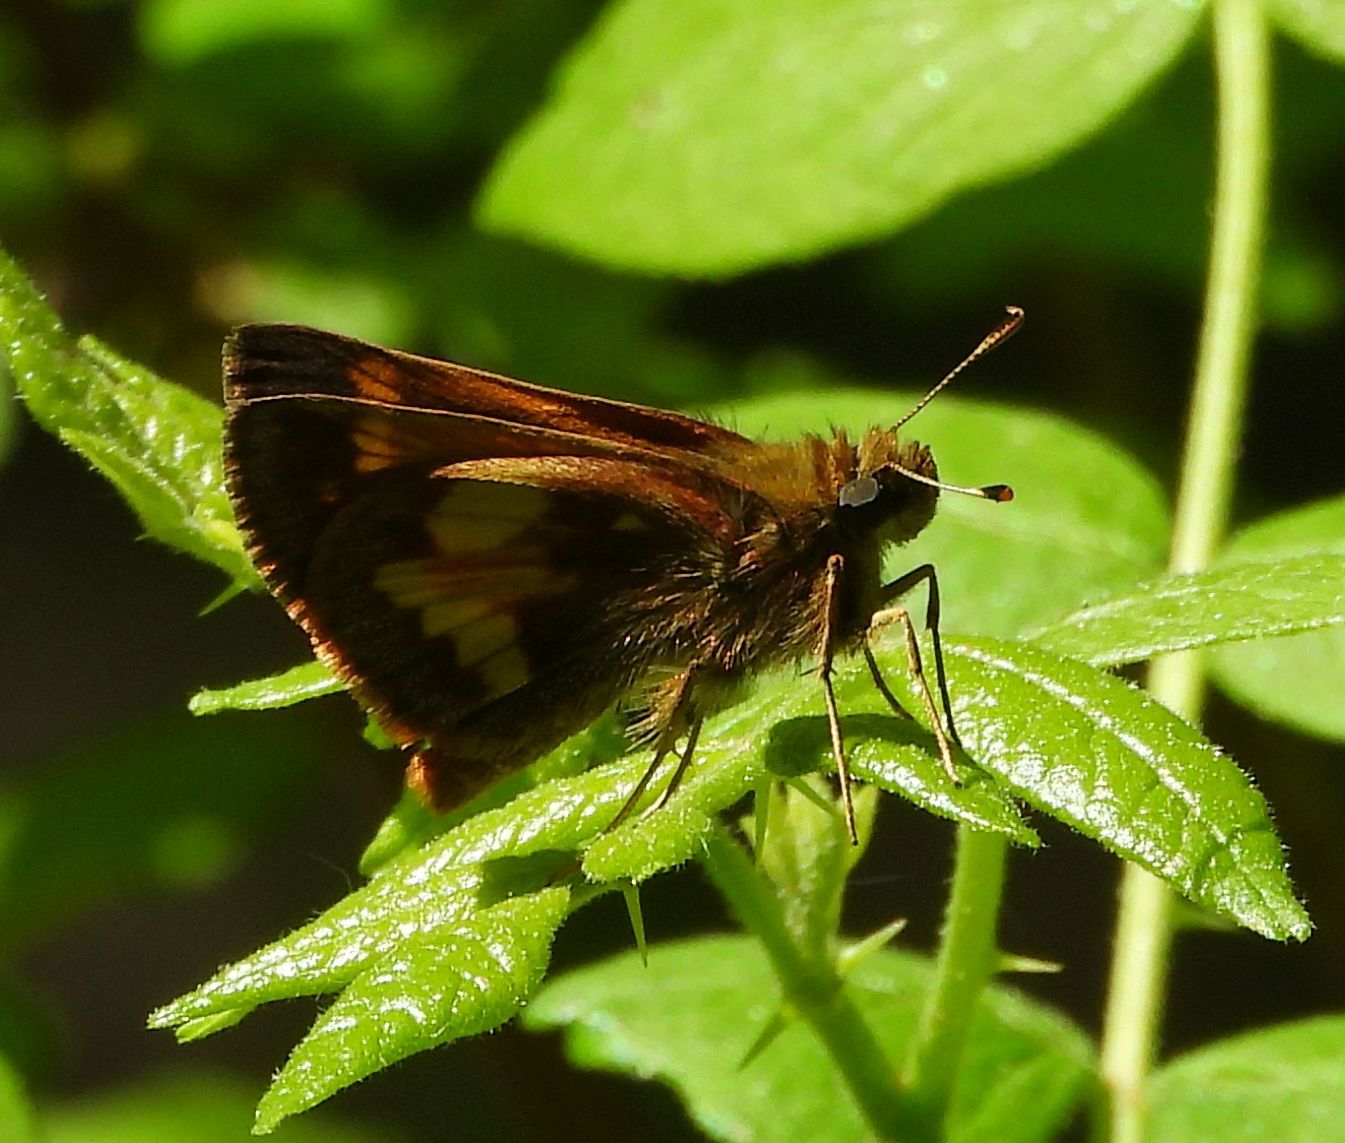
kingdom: Animalia
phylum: Arthropoda
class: Insecta
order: Lepidoptera
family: Hesperiidae
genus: Lon
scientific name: Lon hobomok
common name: Hobomok skipper
